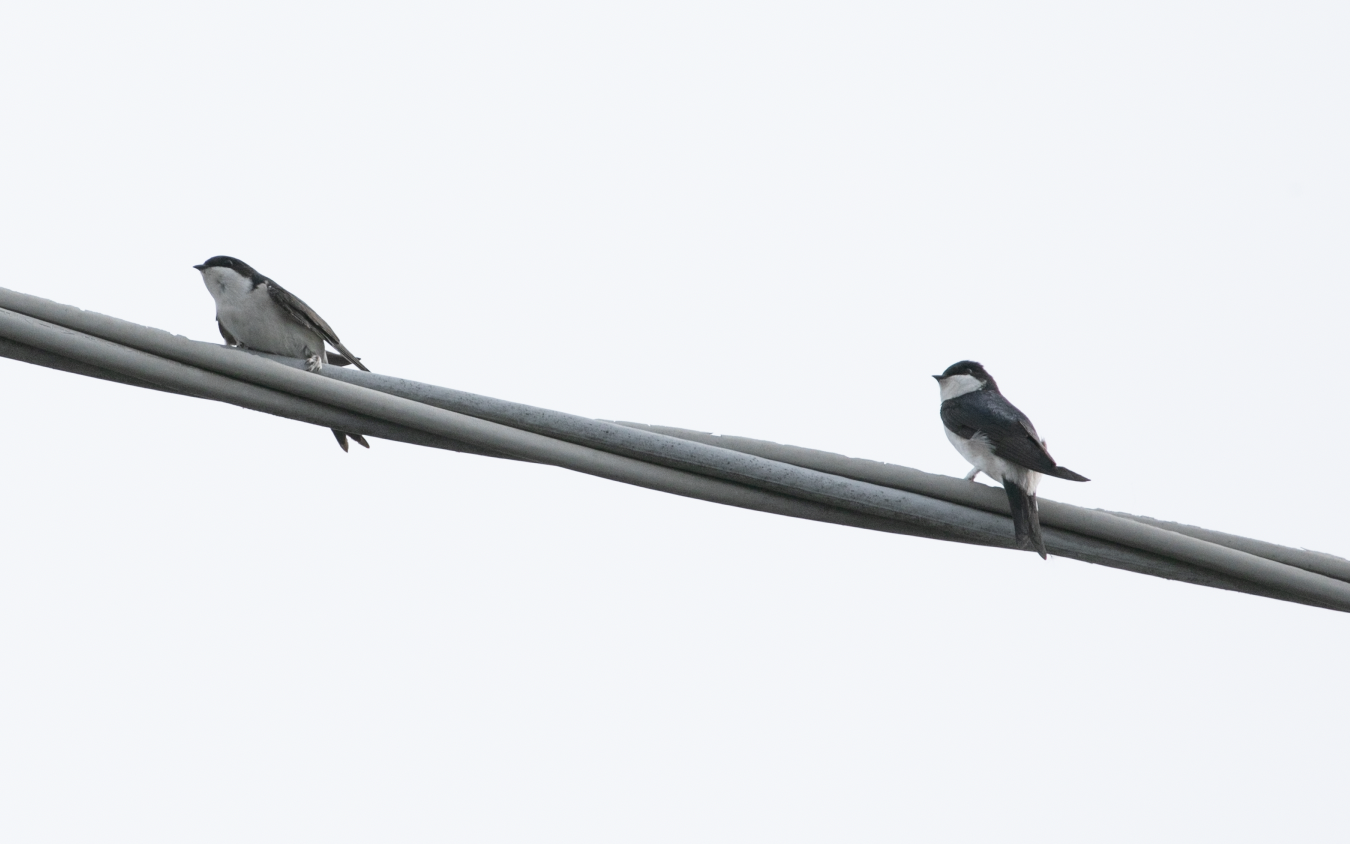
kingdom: Animalia
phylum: Chordata
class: Aves
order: Passeriformes
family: Hirundinidae
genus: Delichon
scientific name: Delichon urbicum
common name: Common house martin
